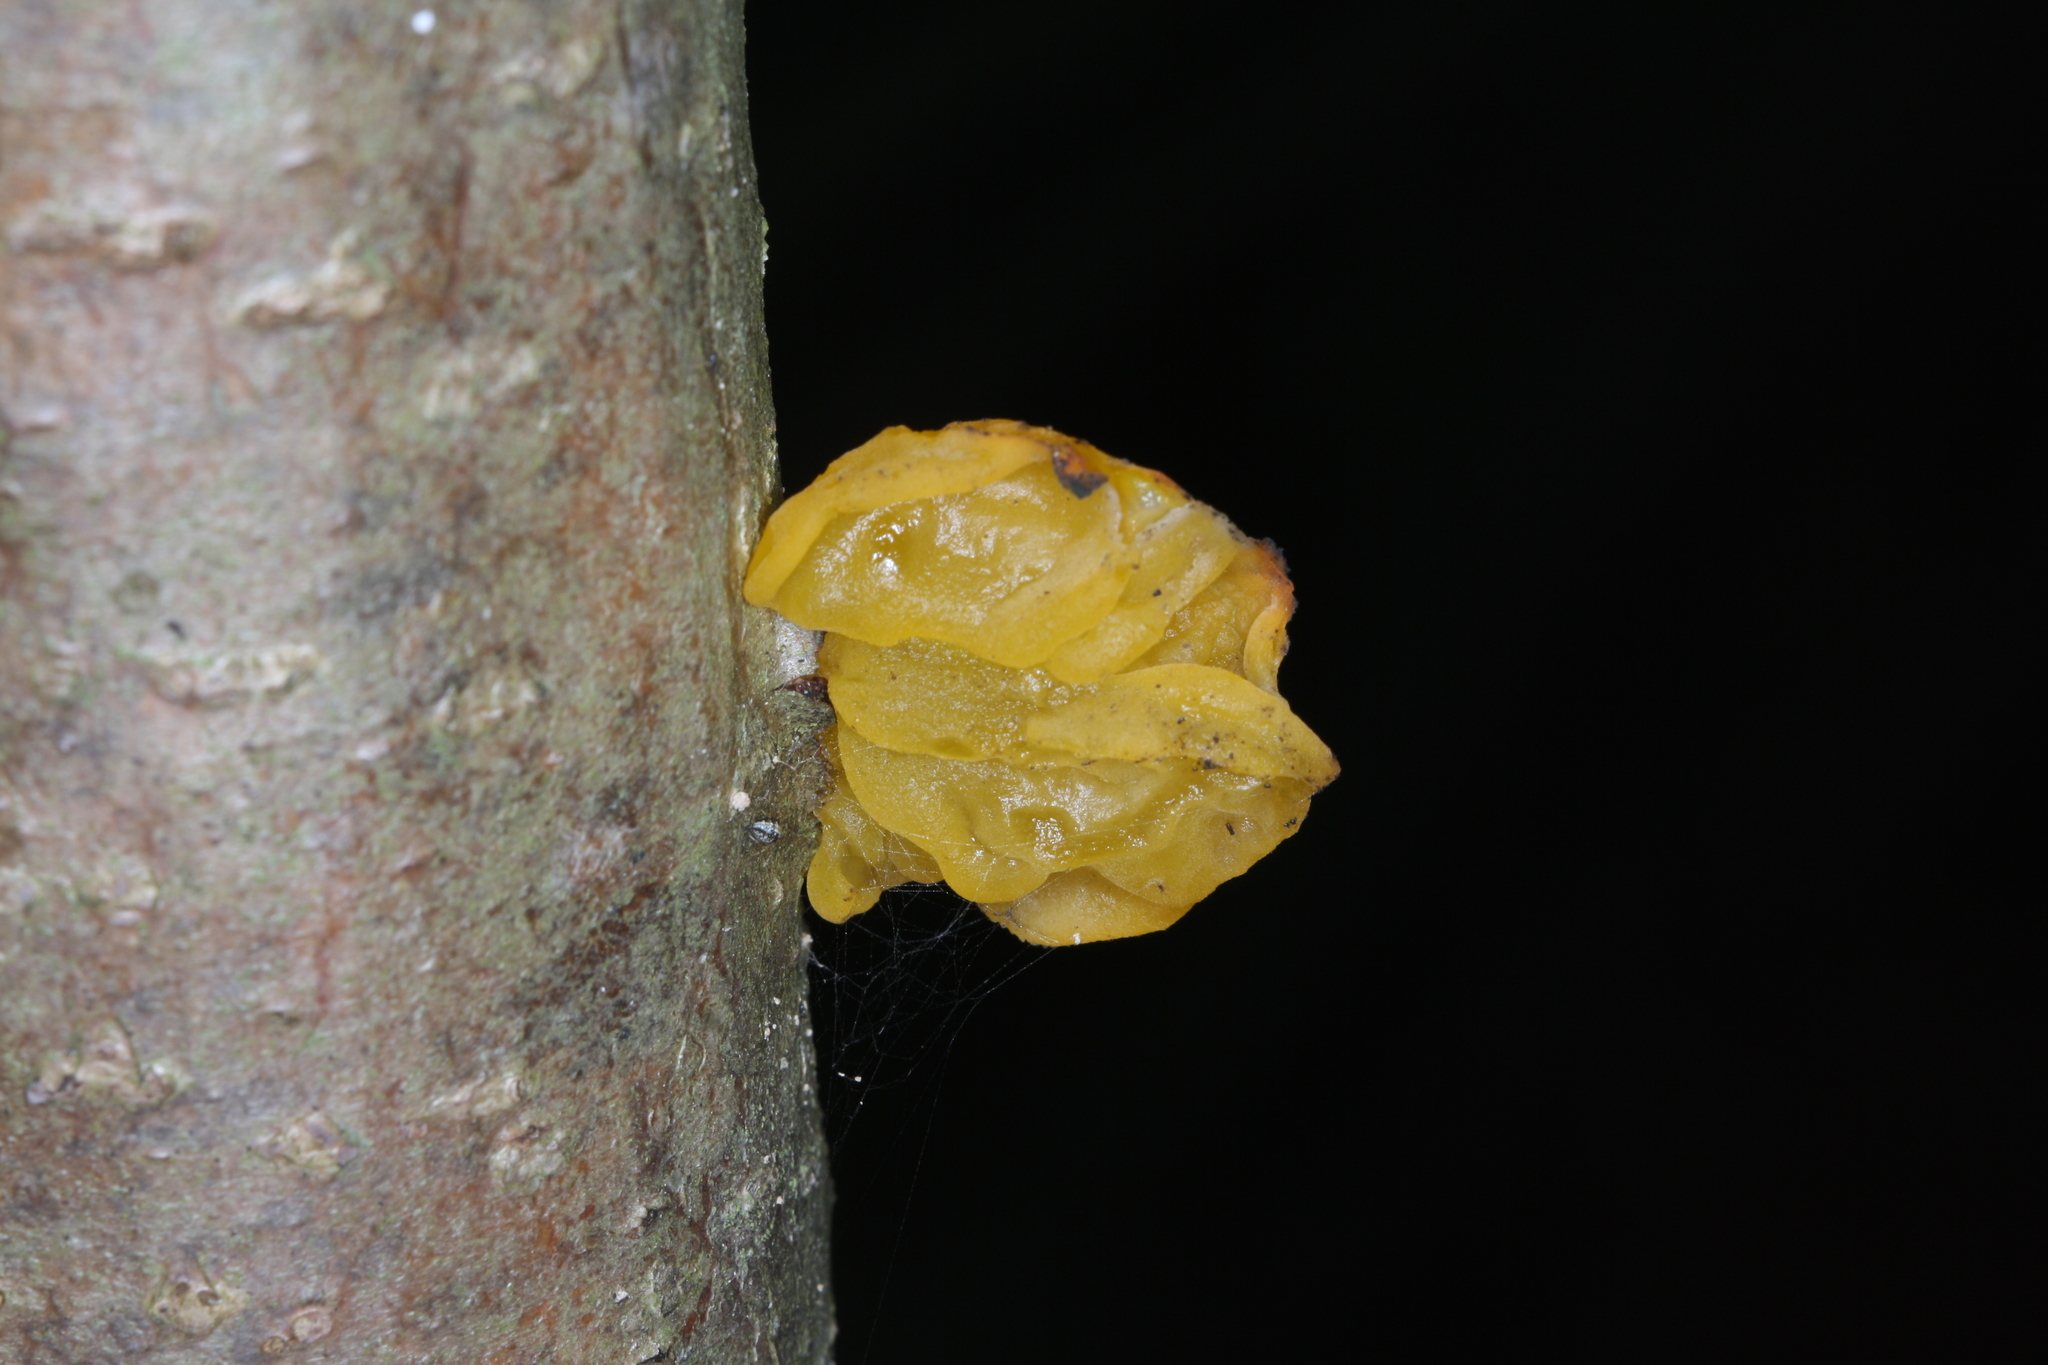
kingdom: Fungi
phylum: Basidiomycota
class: Tremellomycetes
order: Tremellales
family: Tremellaceae
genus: Tremella
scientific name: Tremella mesenterica
